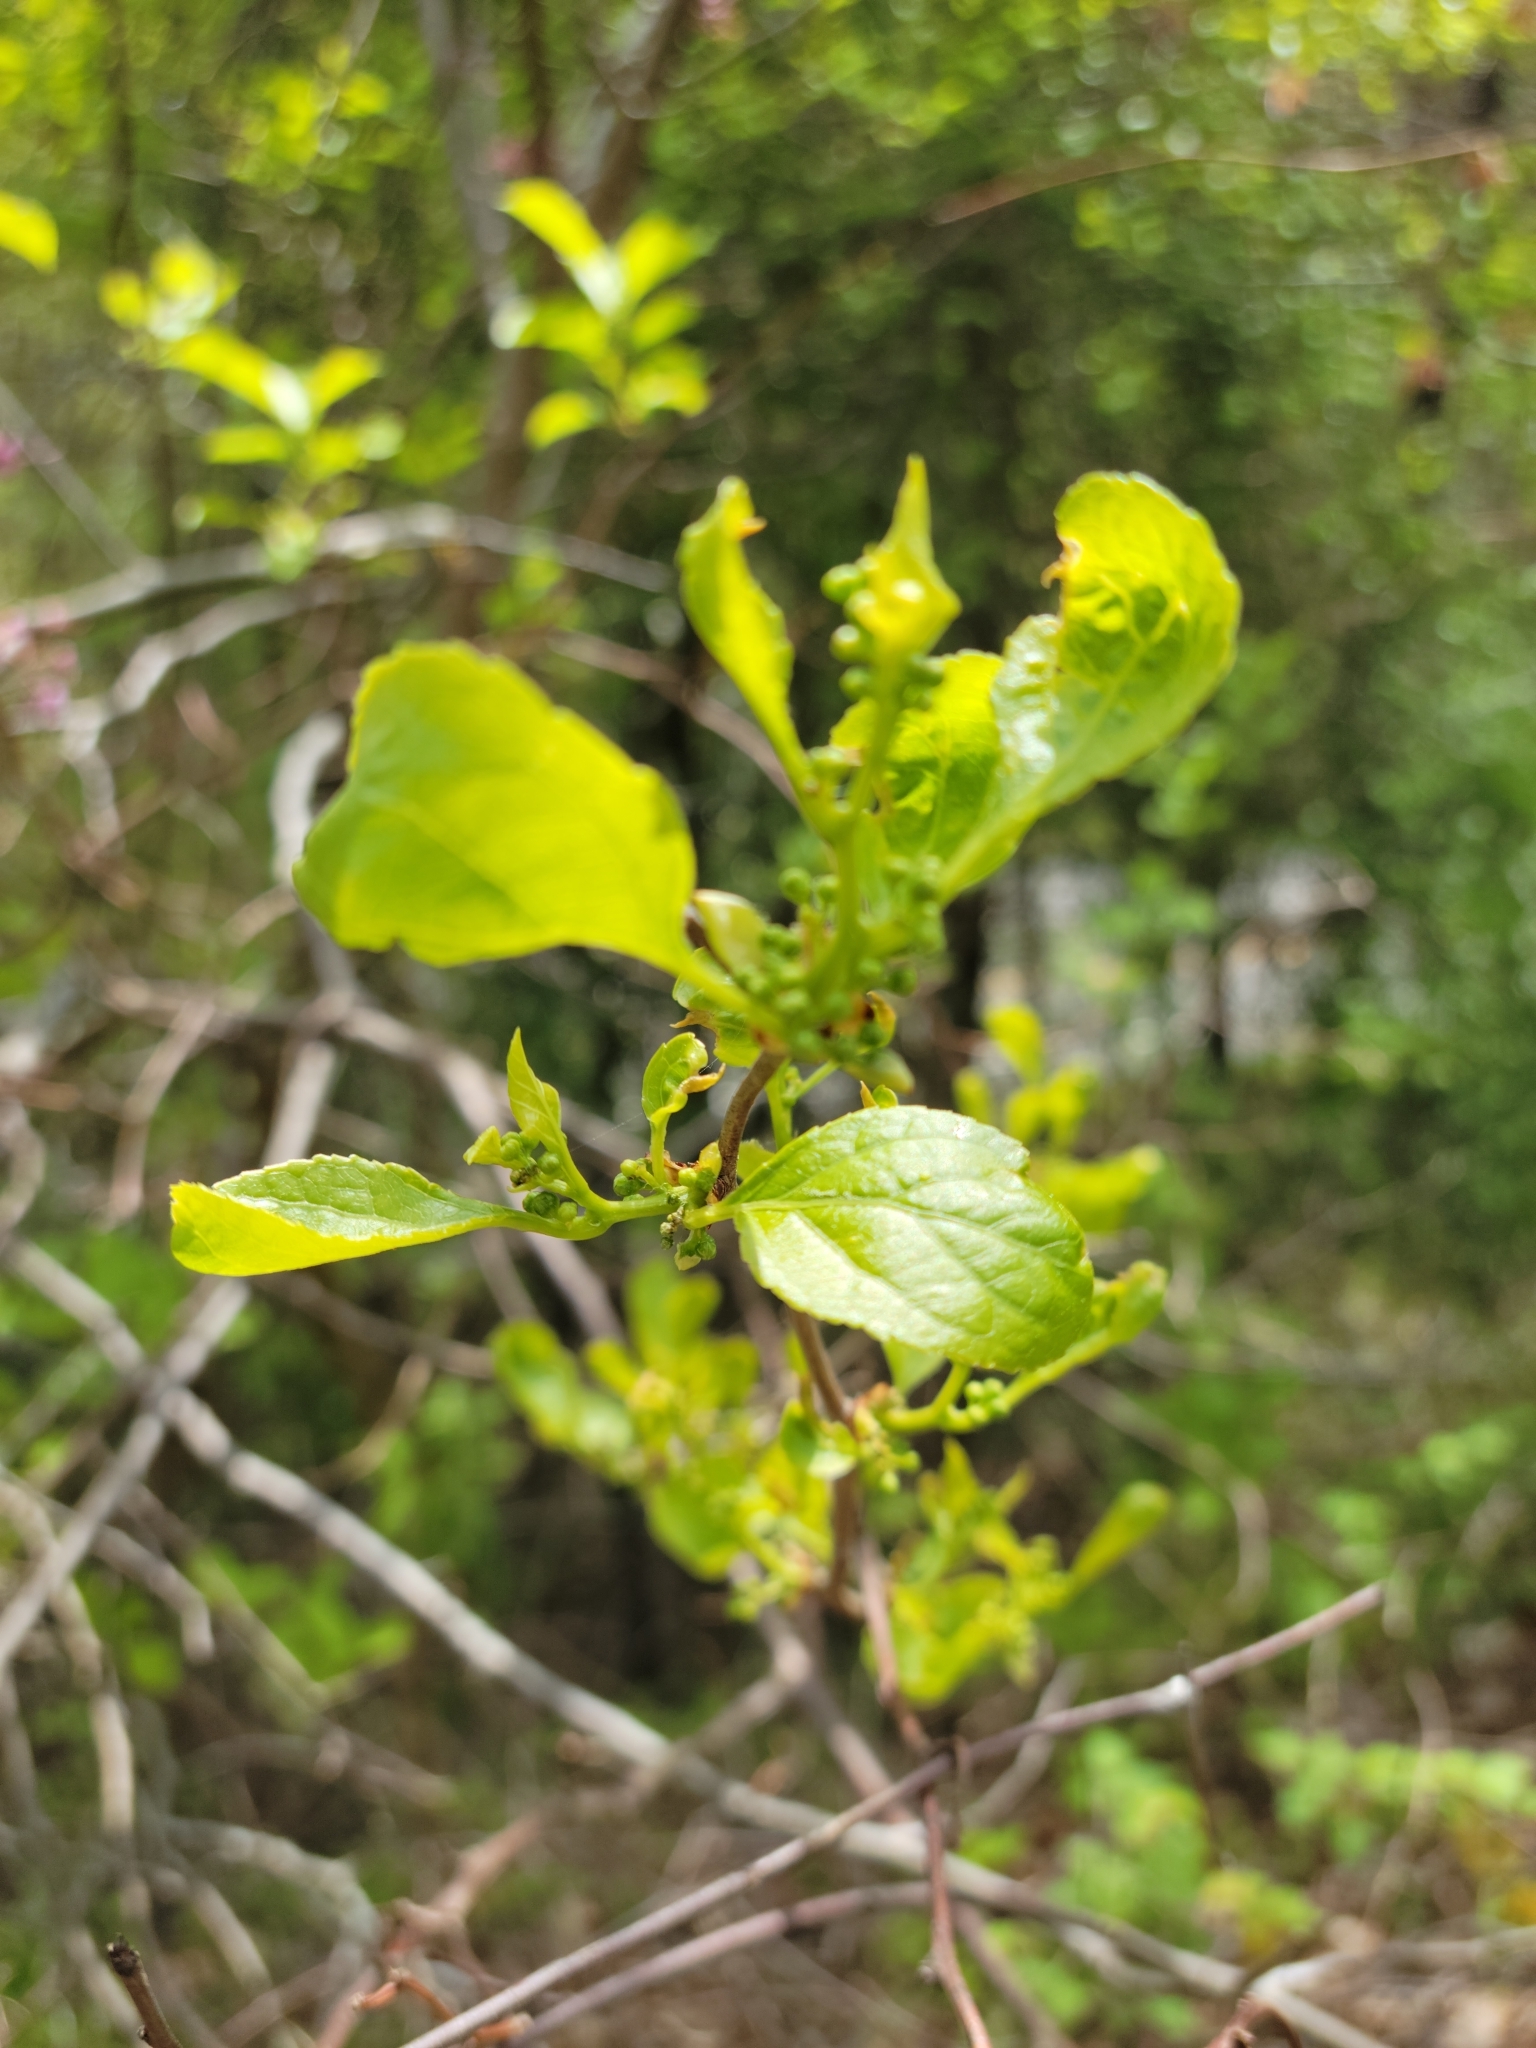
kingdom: Plantae
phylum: Tracheophyta
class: Magnoliopsida
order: Celastrales
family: Celastraceae
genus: Celastrus
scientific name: Celastrus orbiculatus
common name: Oriental bittersweet
